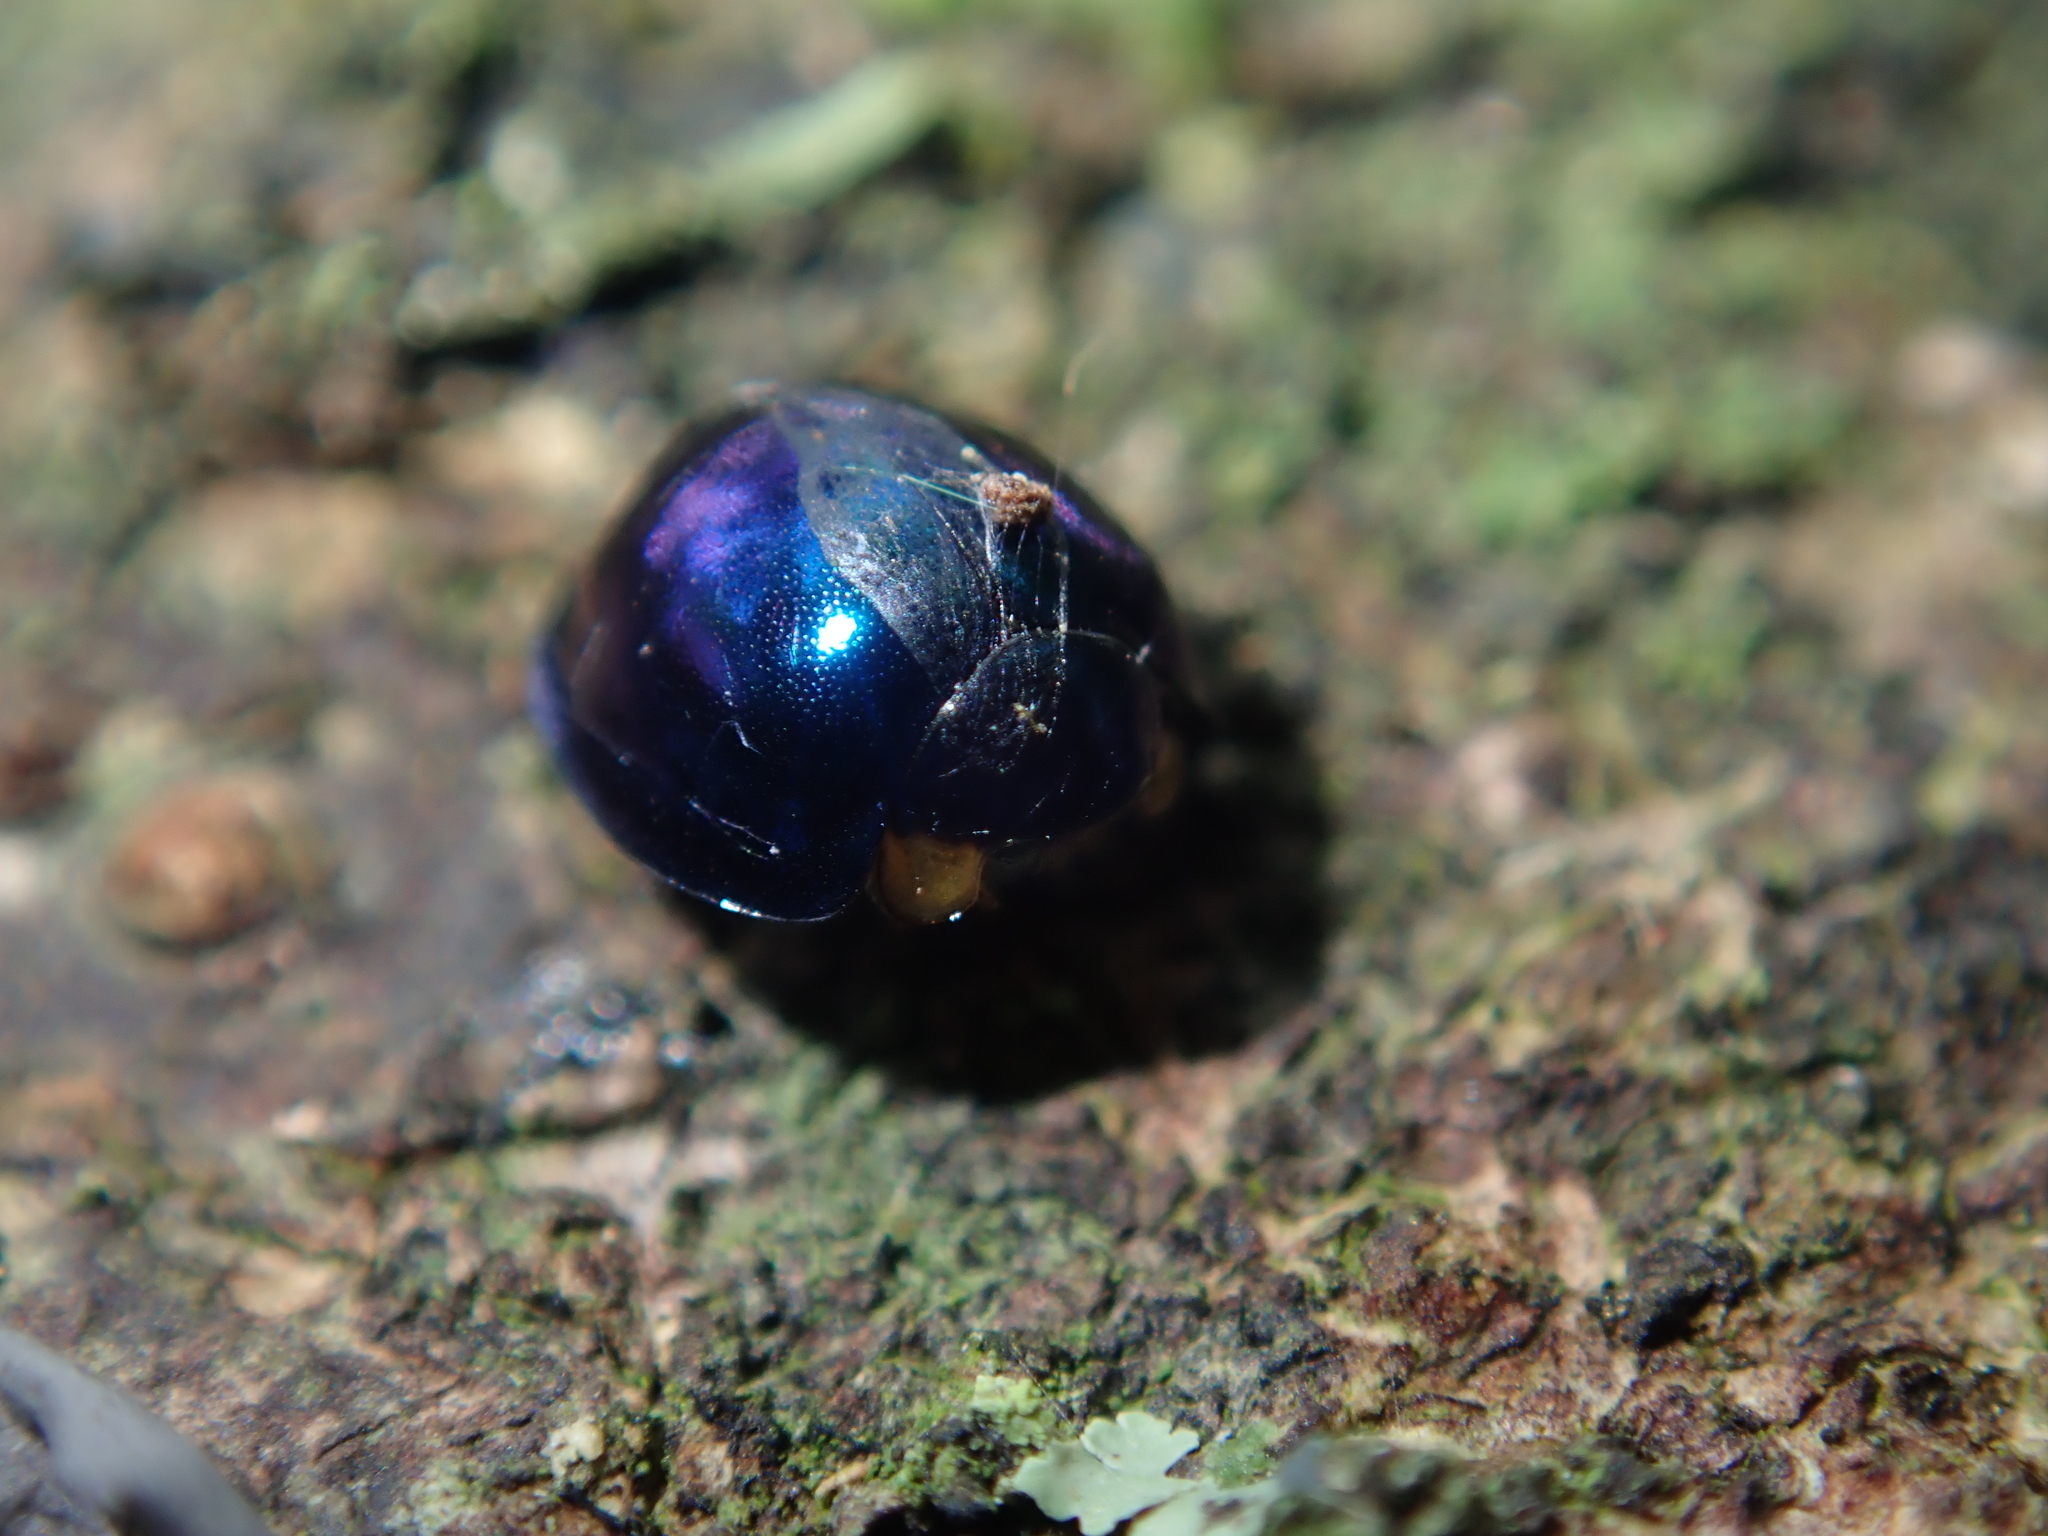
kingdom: Animalia
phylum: Arthropoda
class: Insecta
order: Coleoptera
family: Coccinellidae
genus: Halmus
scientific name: Halmus chalybeus
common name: Steel blue ladybird beetle
